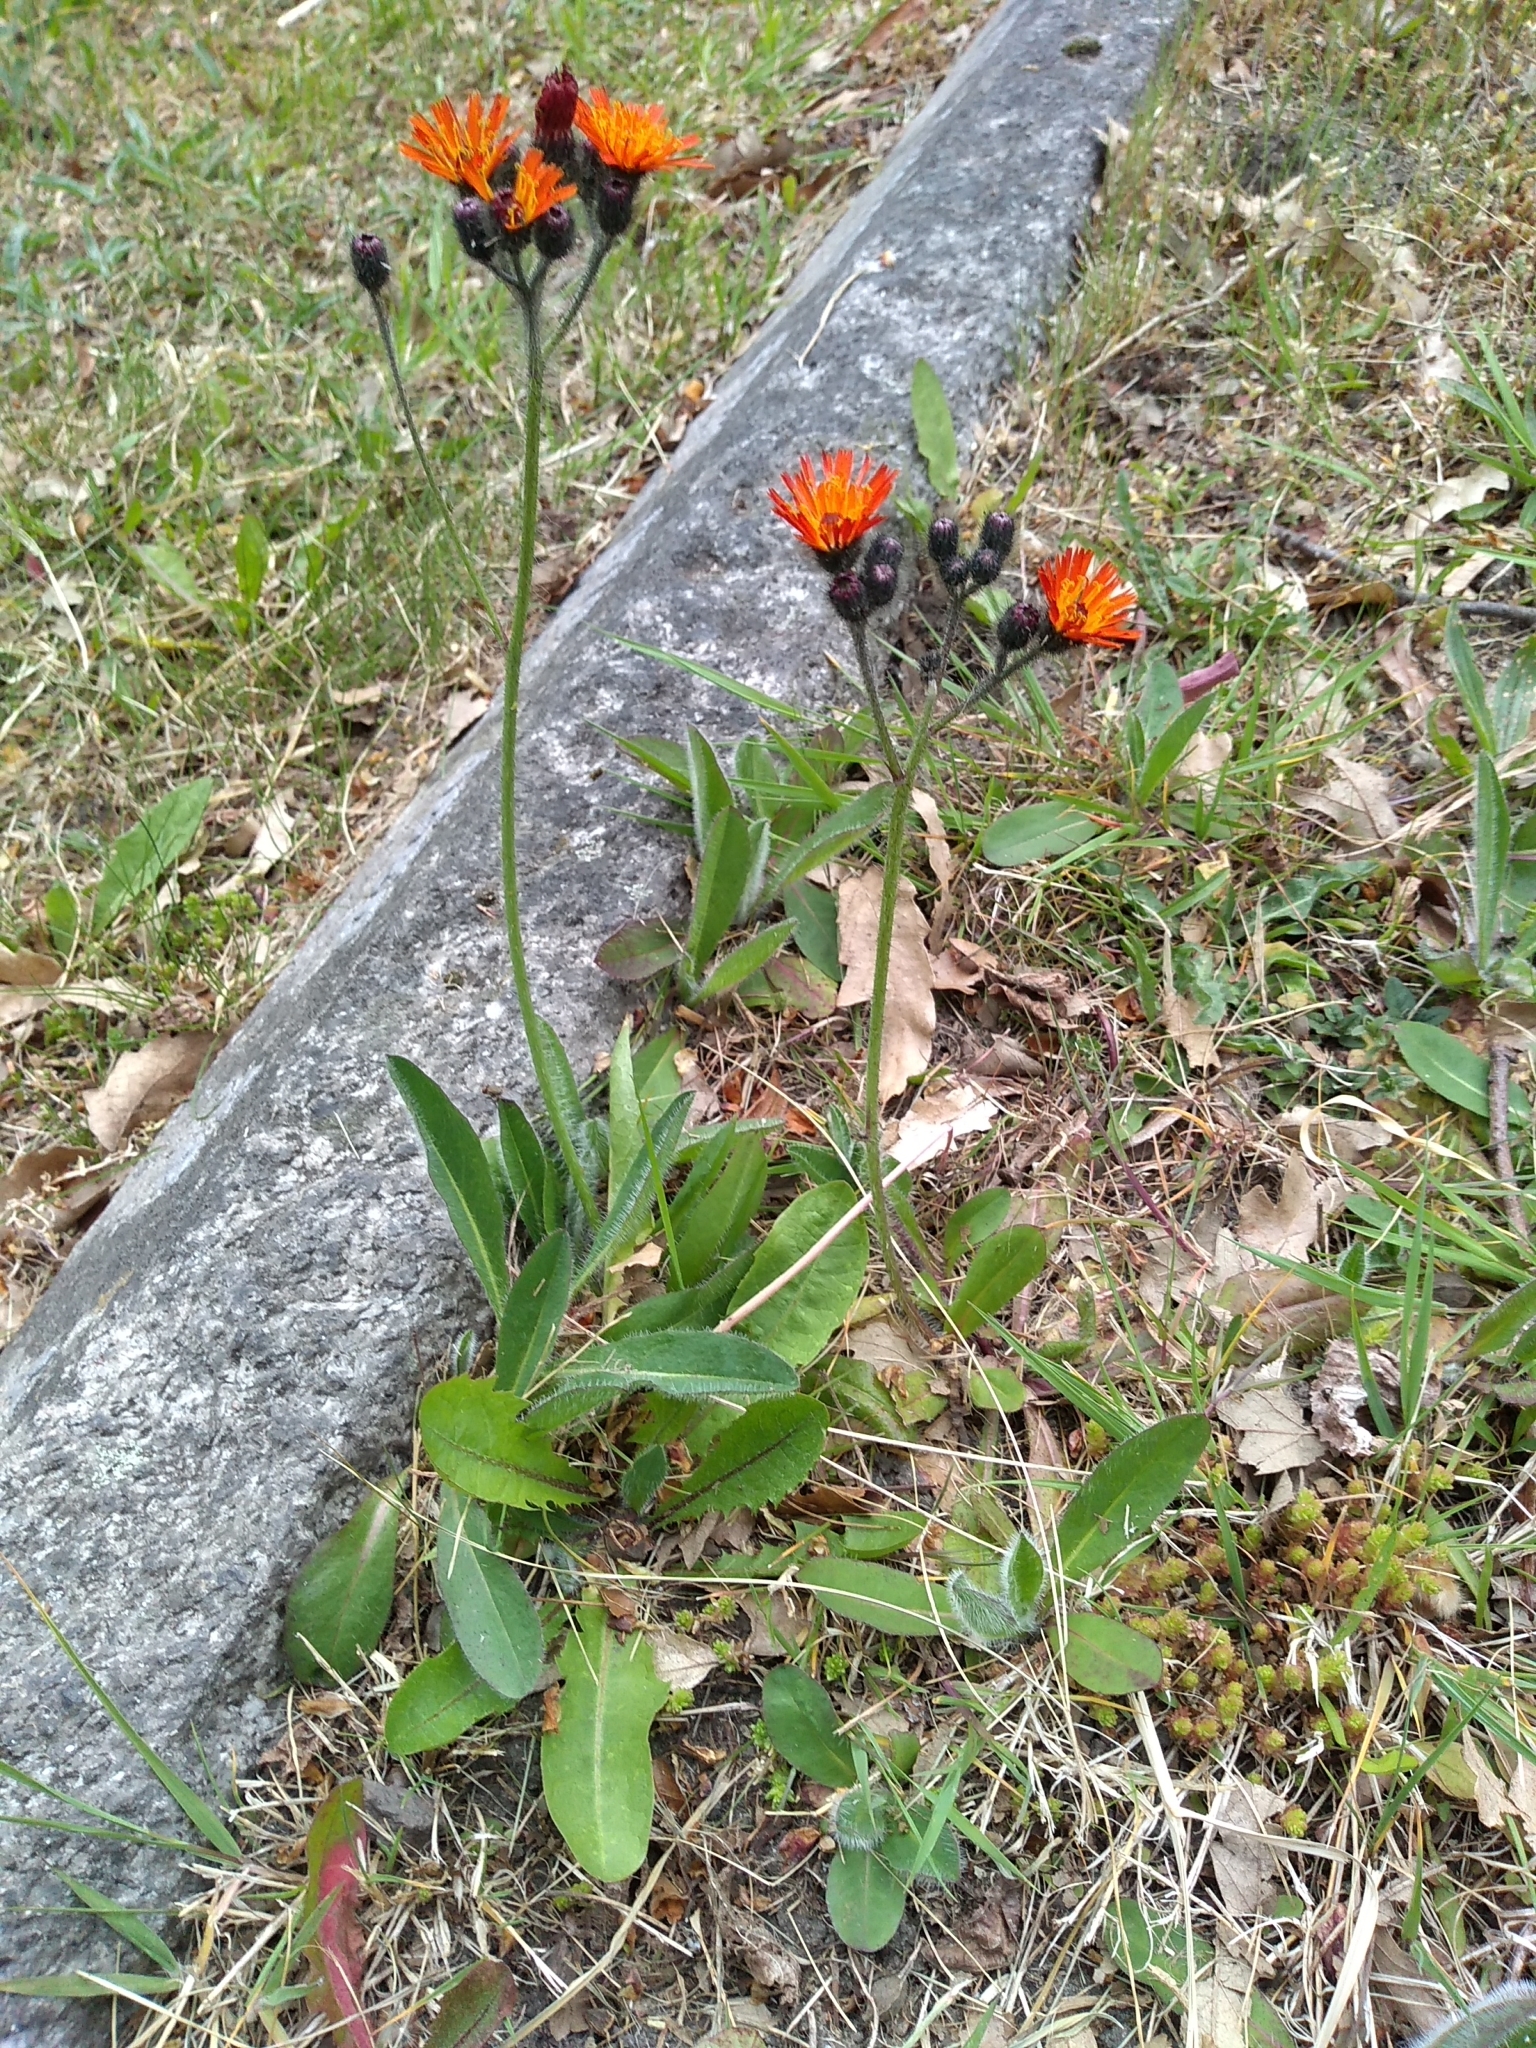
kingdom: Plantae
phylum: Tracheophyta
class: Magnoliopsida
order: Asterales
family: Asteraceae
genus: Pilosella
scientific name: Pilosella aurantiaca
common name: Fox-and-cubs
